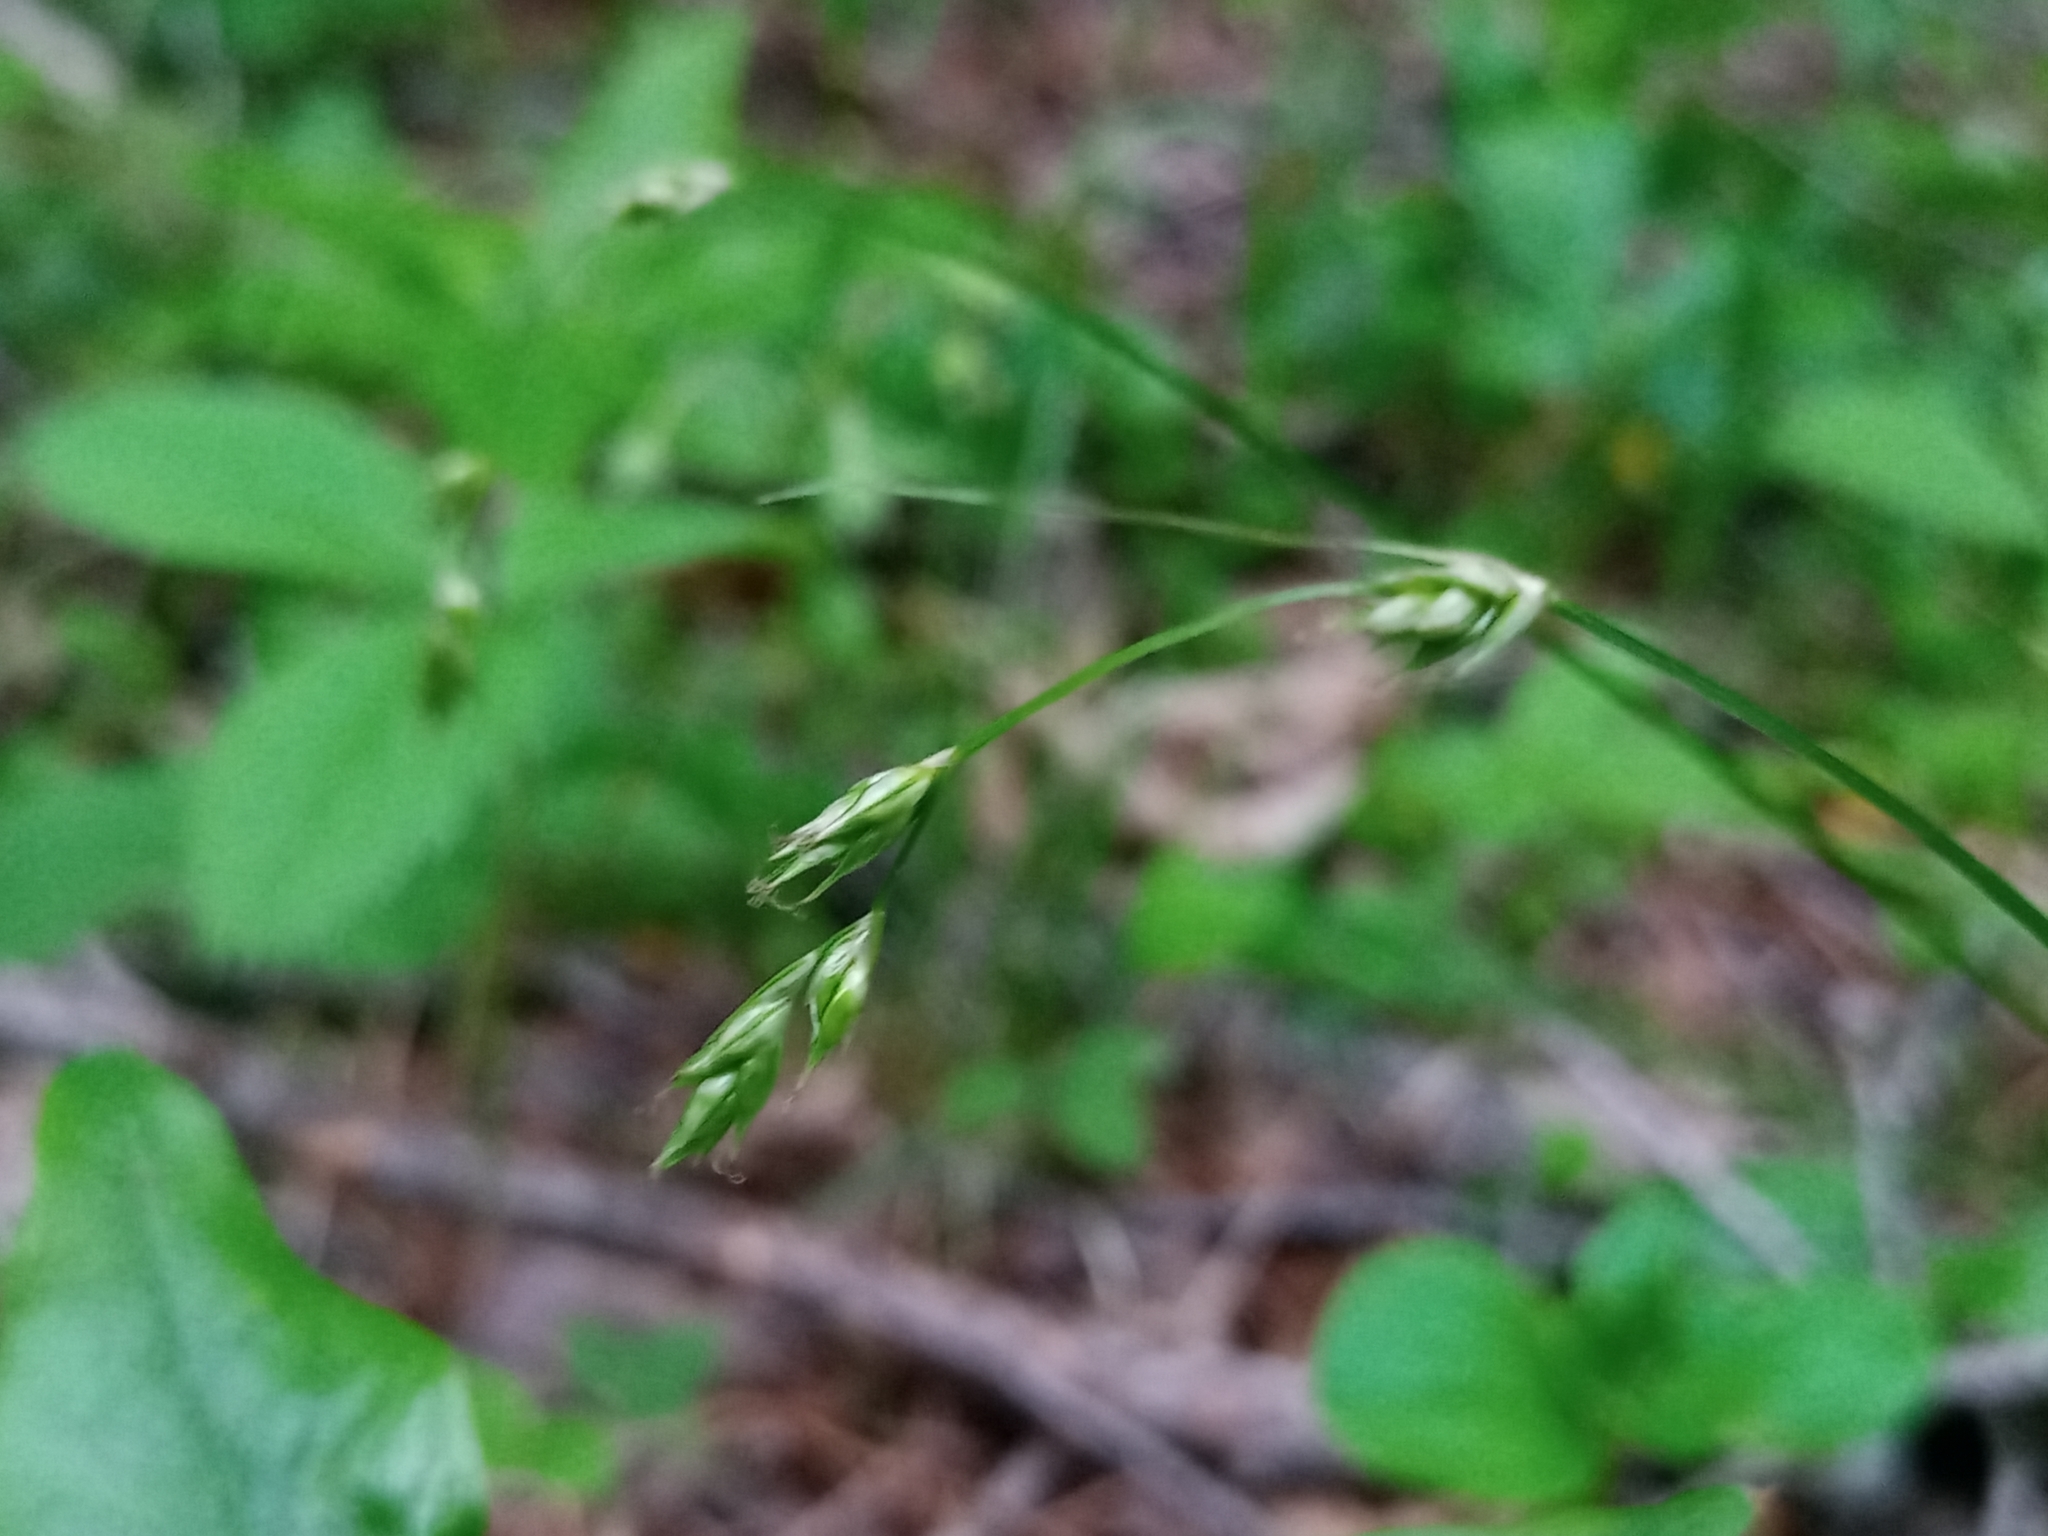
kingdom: Plantae
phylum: Tracheophyta
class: Liliopsida
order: Poales
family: Cyperaceae
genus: Carex
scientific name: Carex deweyana
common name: Dewey's sedge
